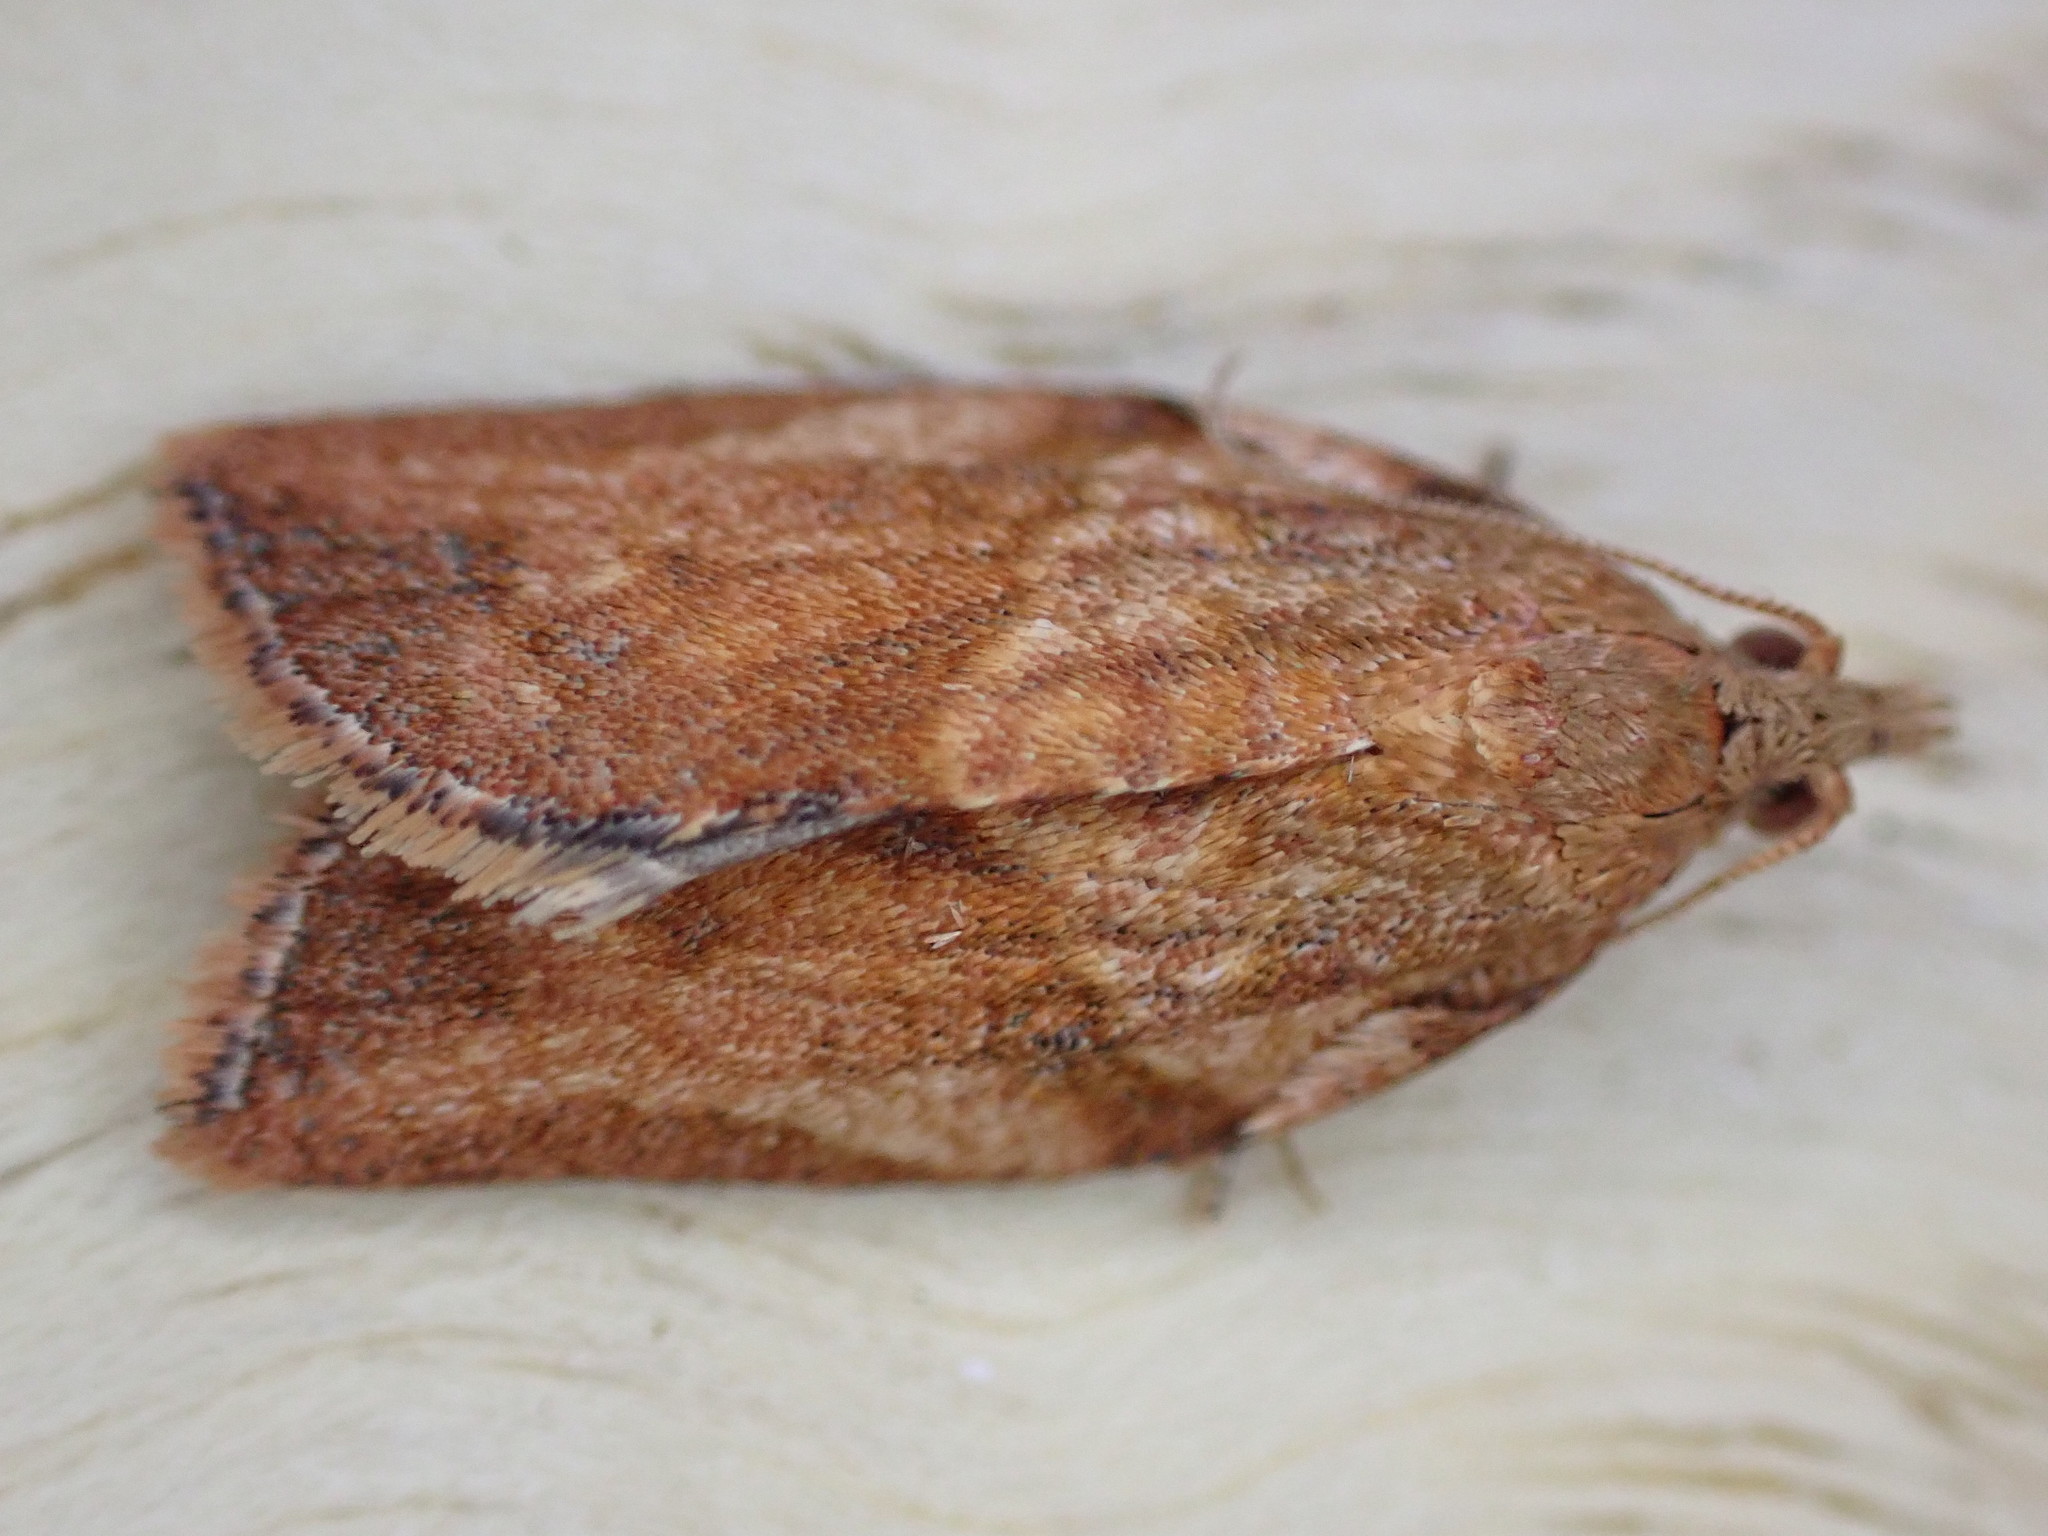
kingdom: Animalia
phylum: Arthropoda
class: Insecta
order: Lepidoptera
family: Tortricidae
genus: Epiphyas
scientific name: Epiphyas postvittana
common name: Light brown apple moth
